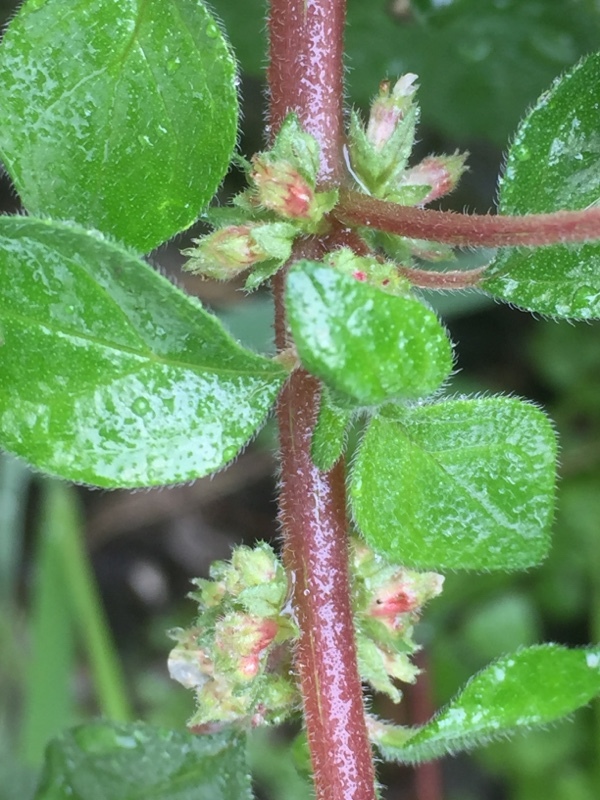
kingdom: Plantae
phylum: Tracheophyta
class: Magnoliopsida
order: Rosales
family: Urticaceae
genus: Parietaria
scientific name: Parietaria judaica
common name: Pellitory-of-the-wall
